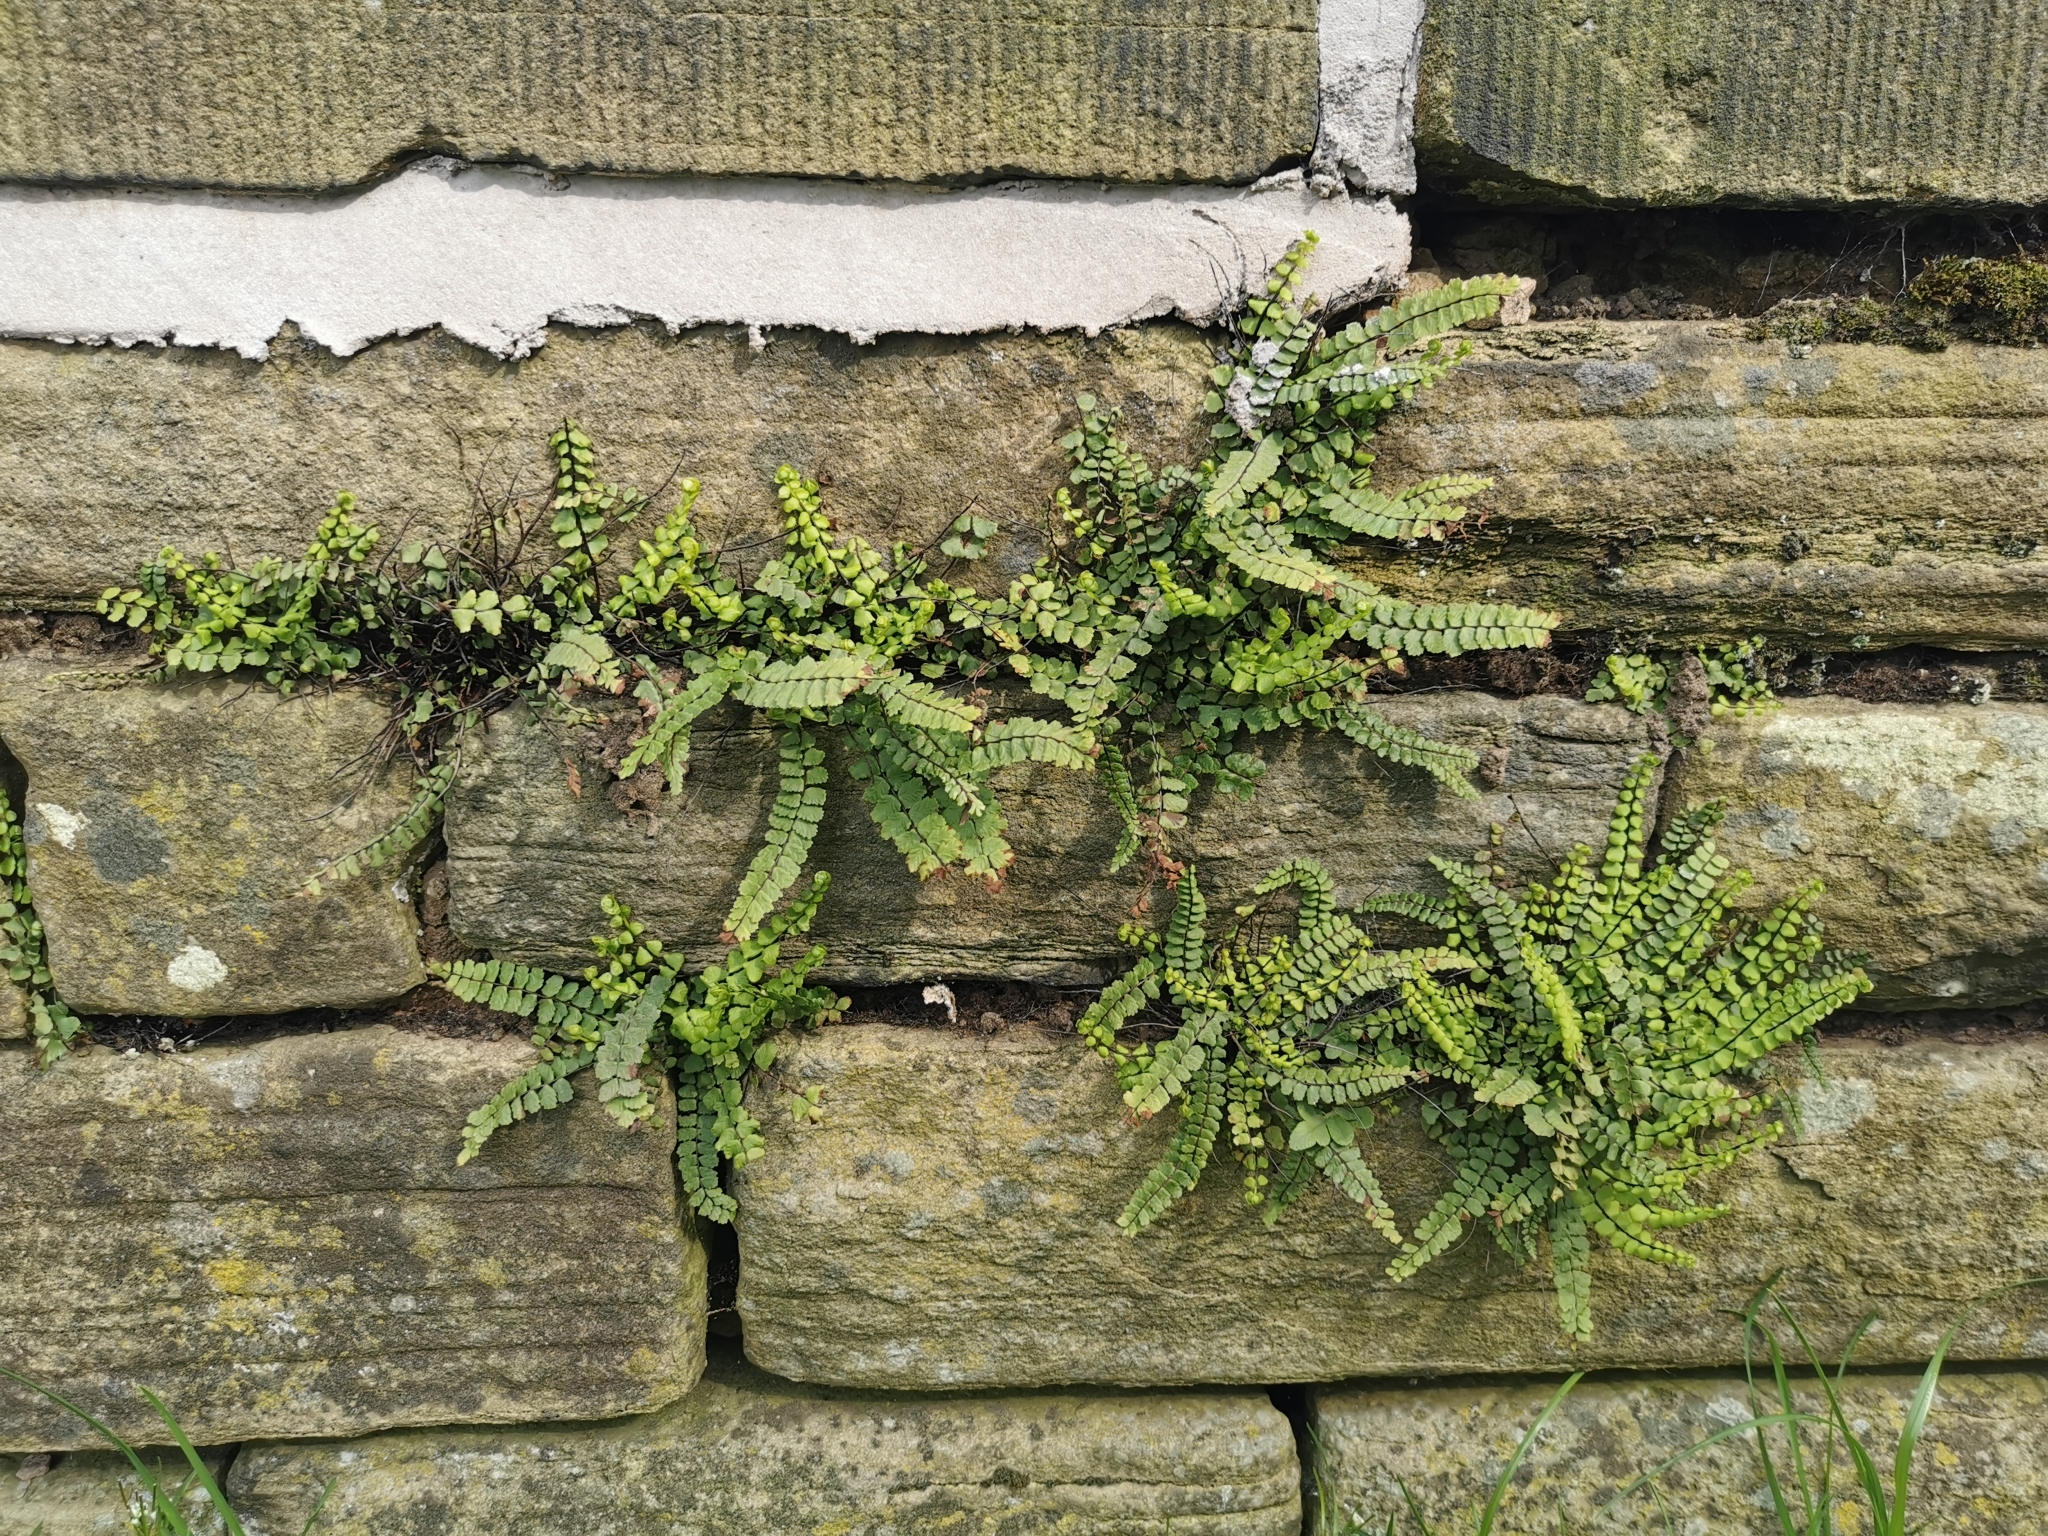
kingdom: Plantae
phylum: Tracheophyta
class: Polypodiopsida
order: Polypodiales
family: Aspleniaceae
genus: Asplenium
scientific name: Asplenium trichomanes
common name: Maidenhair spleenwort
